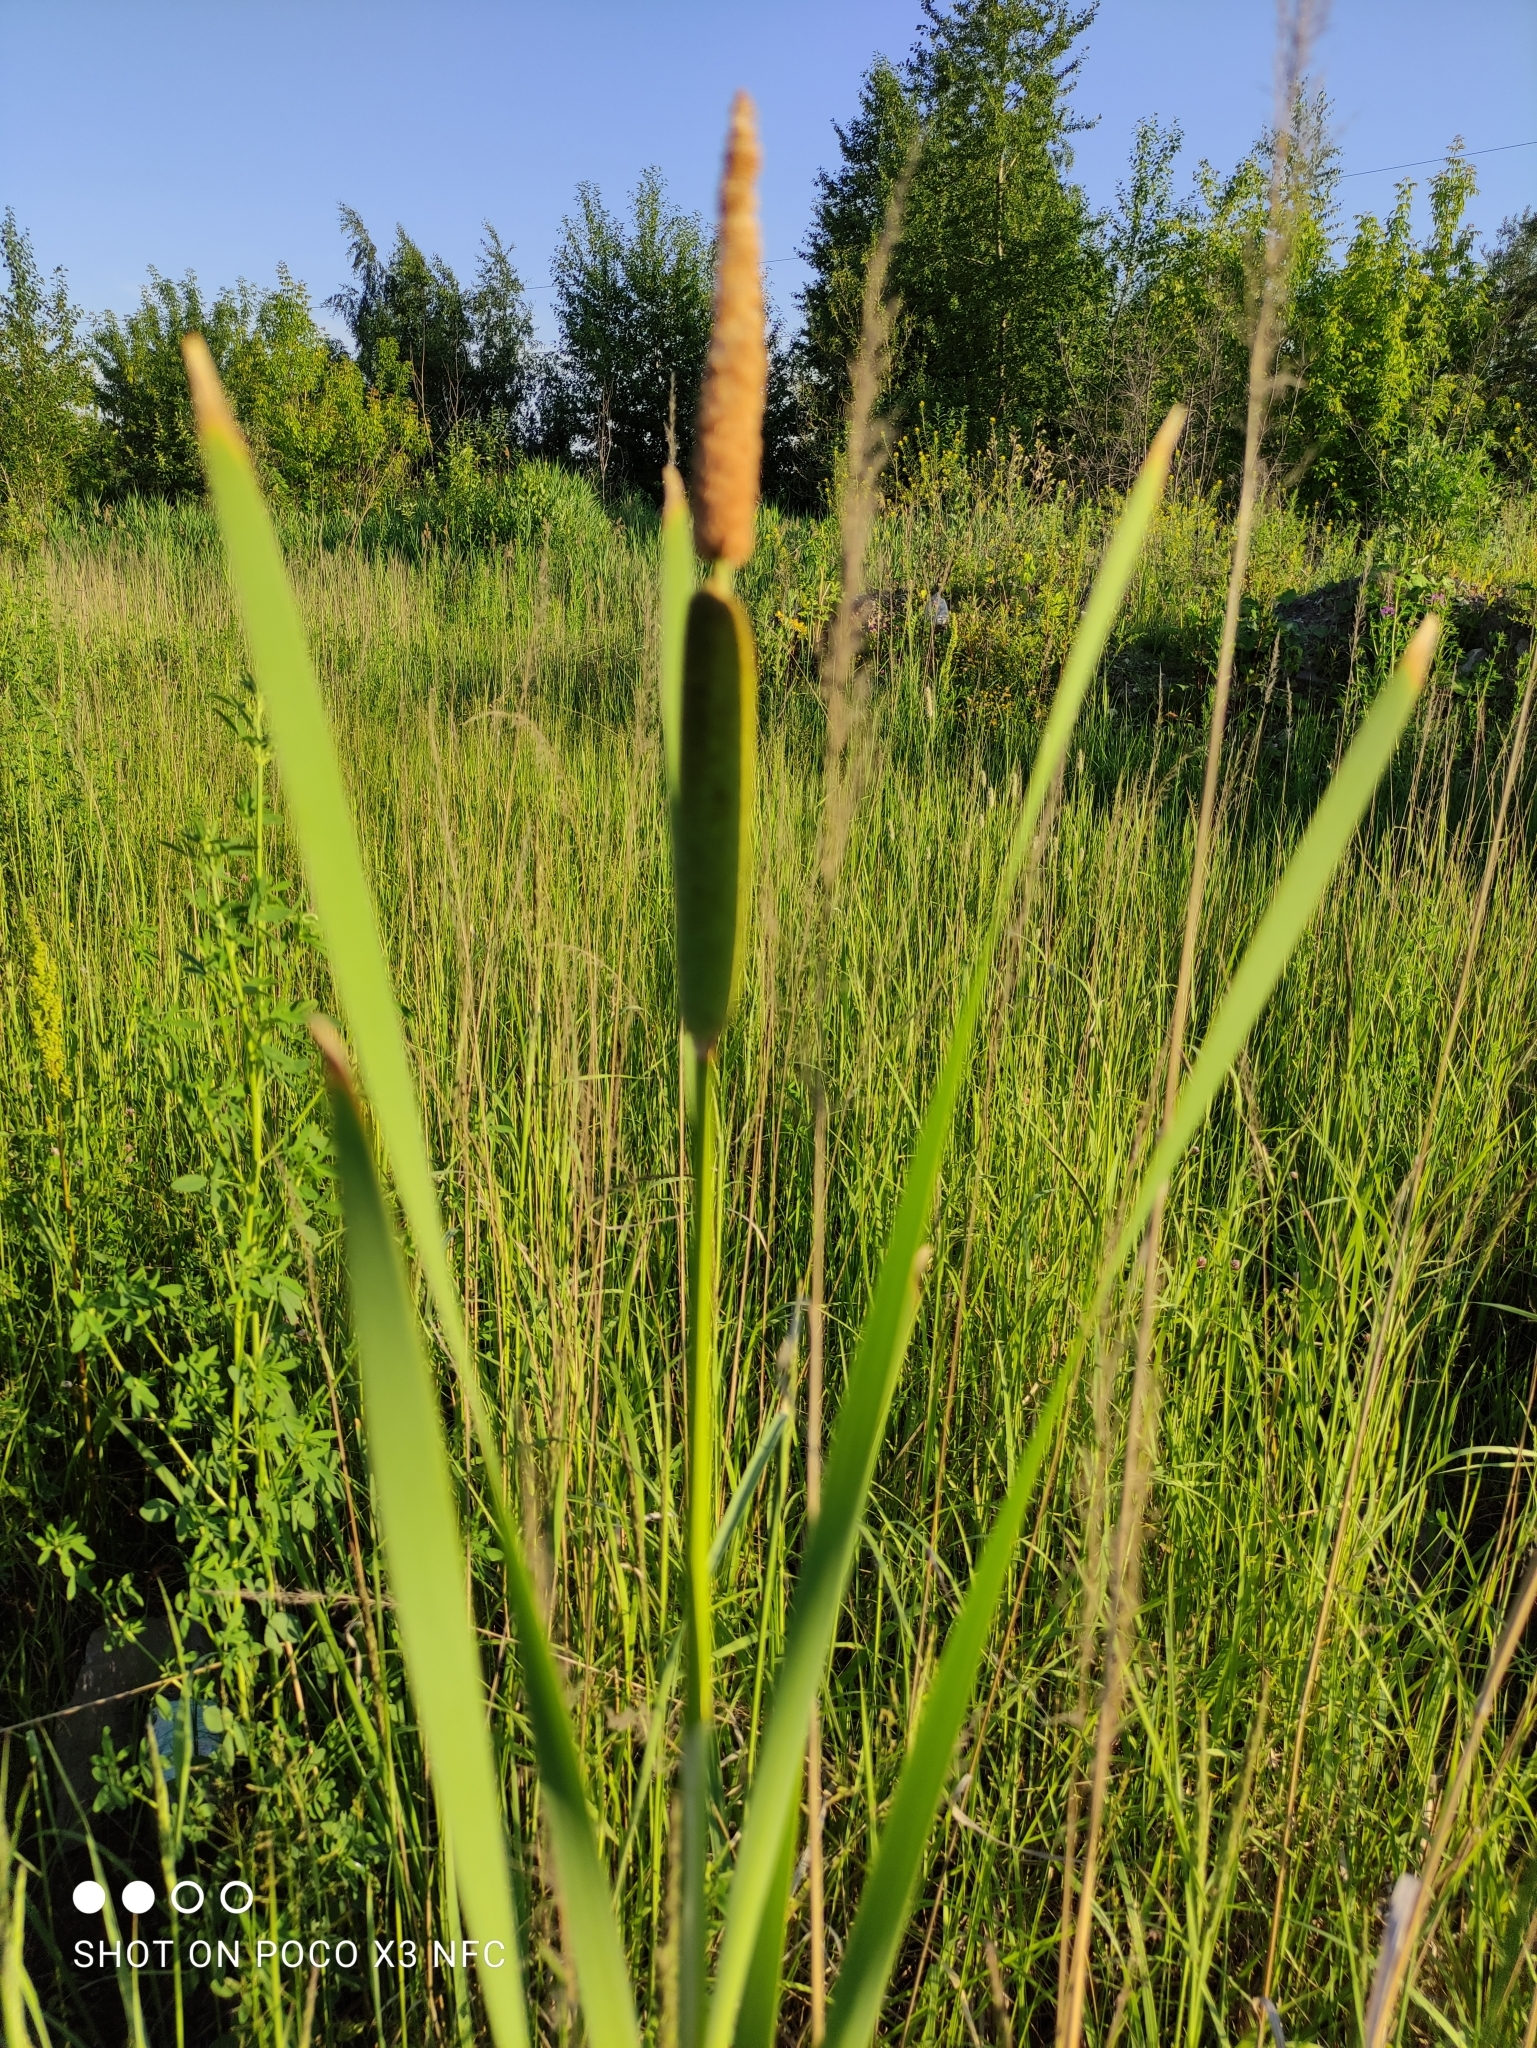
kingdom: Plantae
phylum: Tracheophyta
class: Liliopsida
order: Poales
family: Typhaceae
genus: Typha
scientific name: Typha latifolia
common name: Broadleaf cattail
